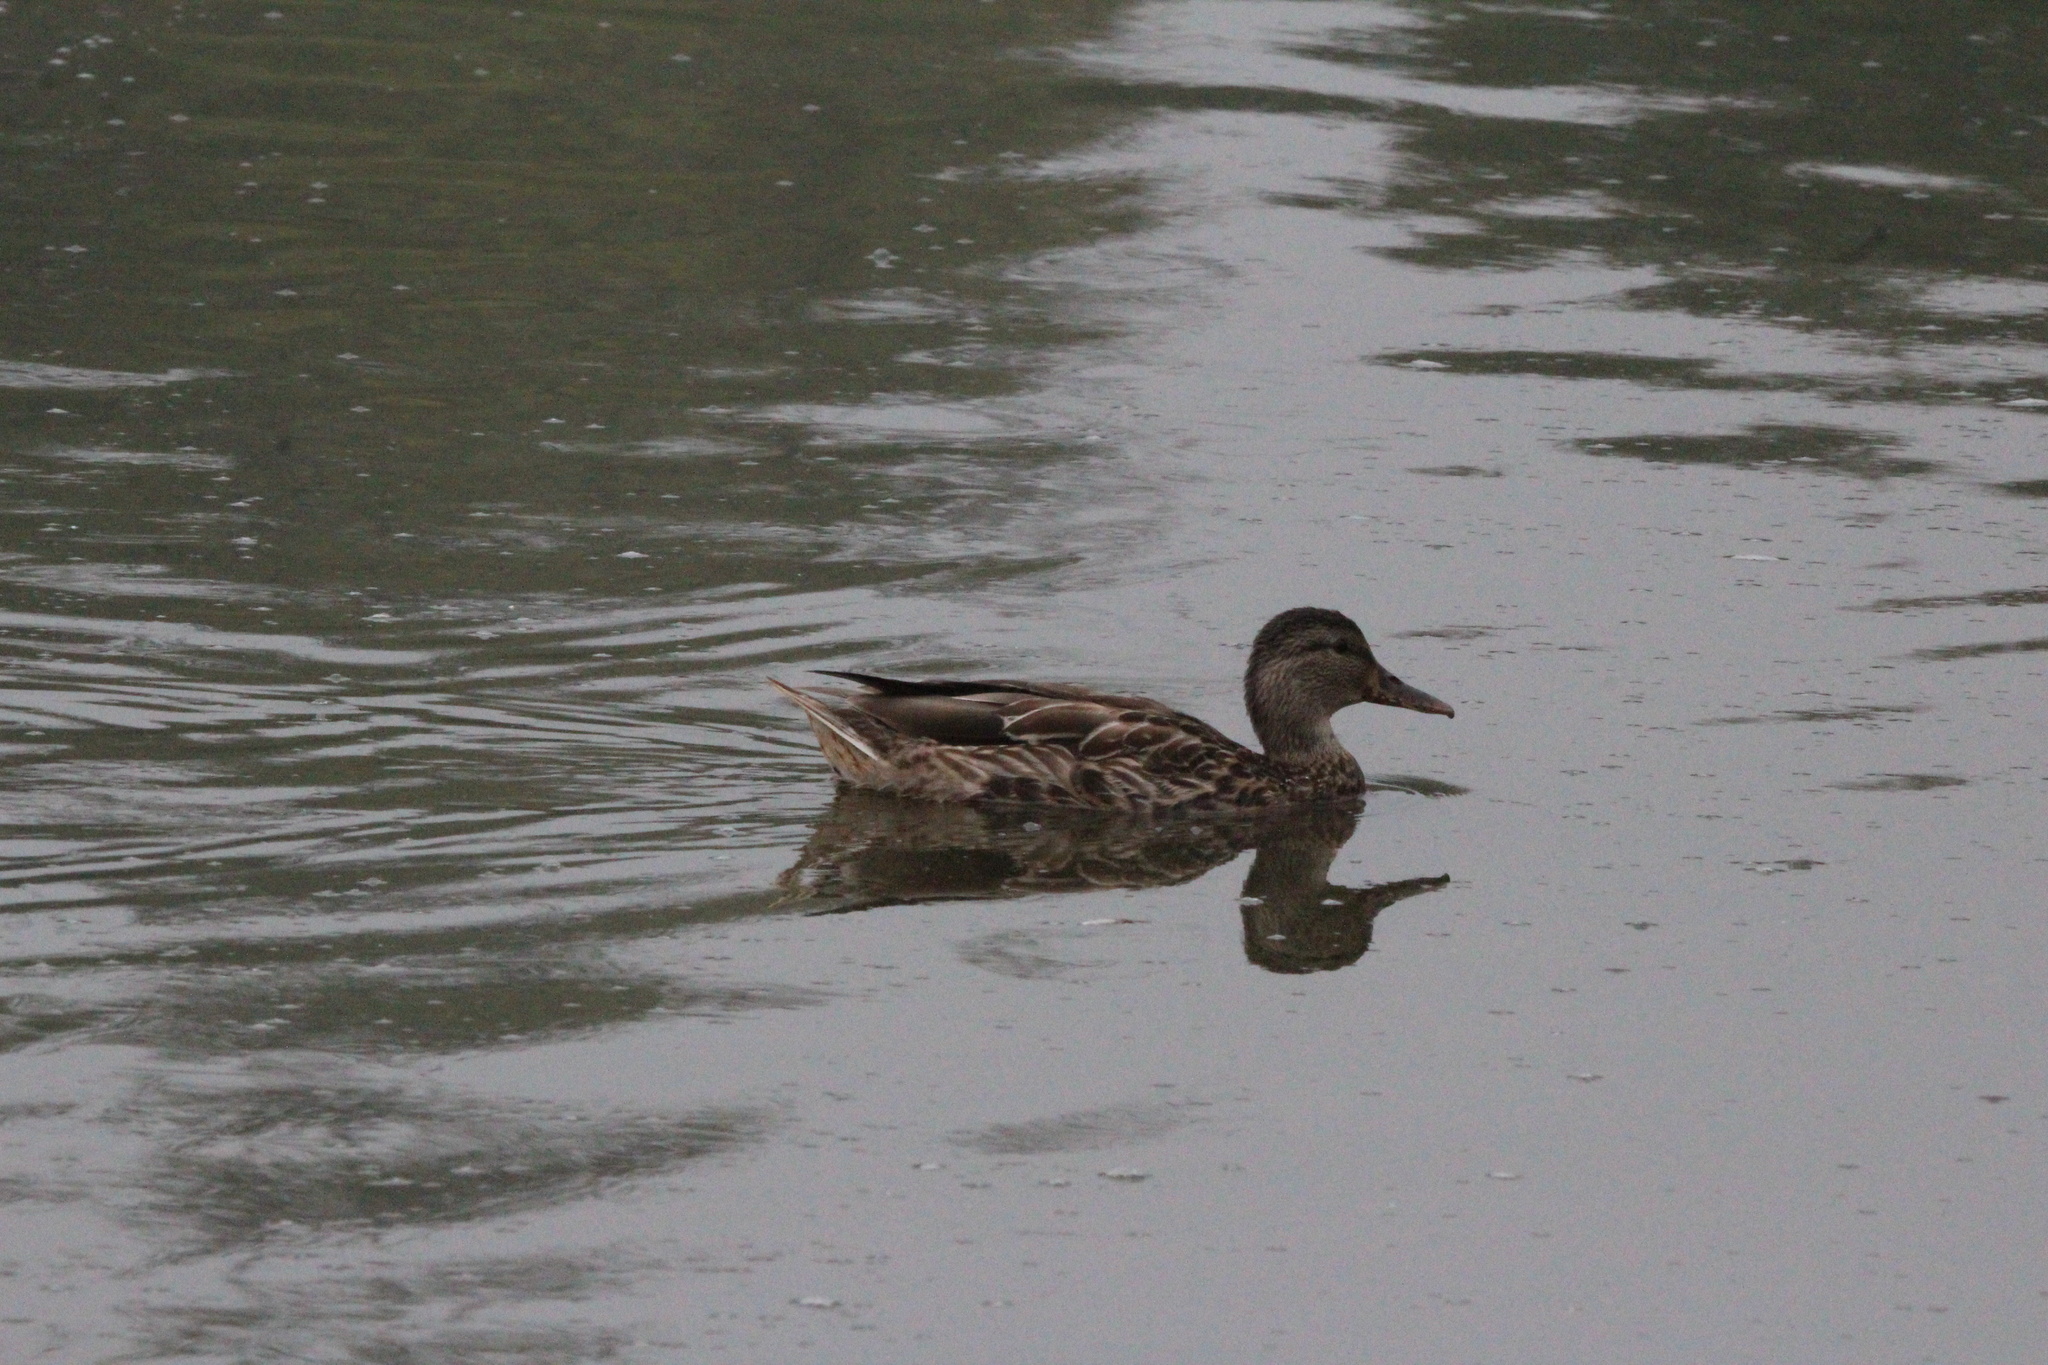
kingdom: Animalia
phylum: Chordata
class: Aves
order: Anseriformes
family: Anatidae
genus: Anas
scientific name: Anas platyrhynchos
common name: Mallard
